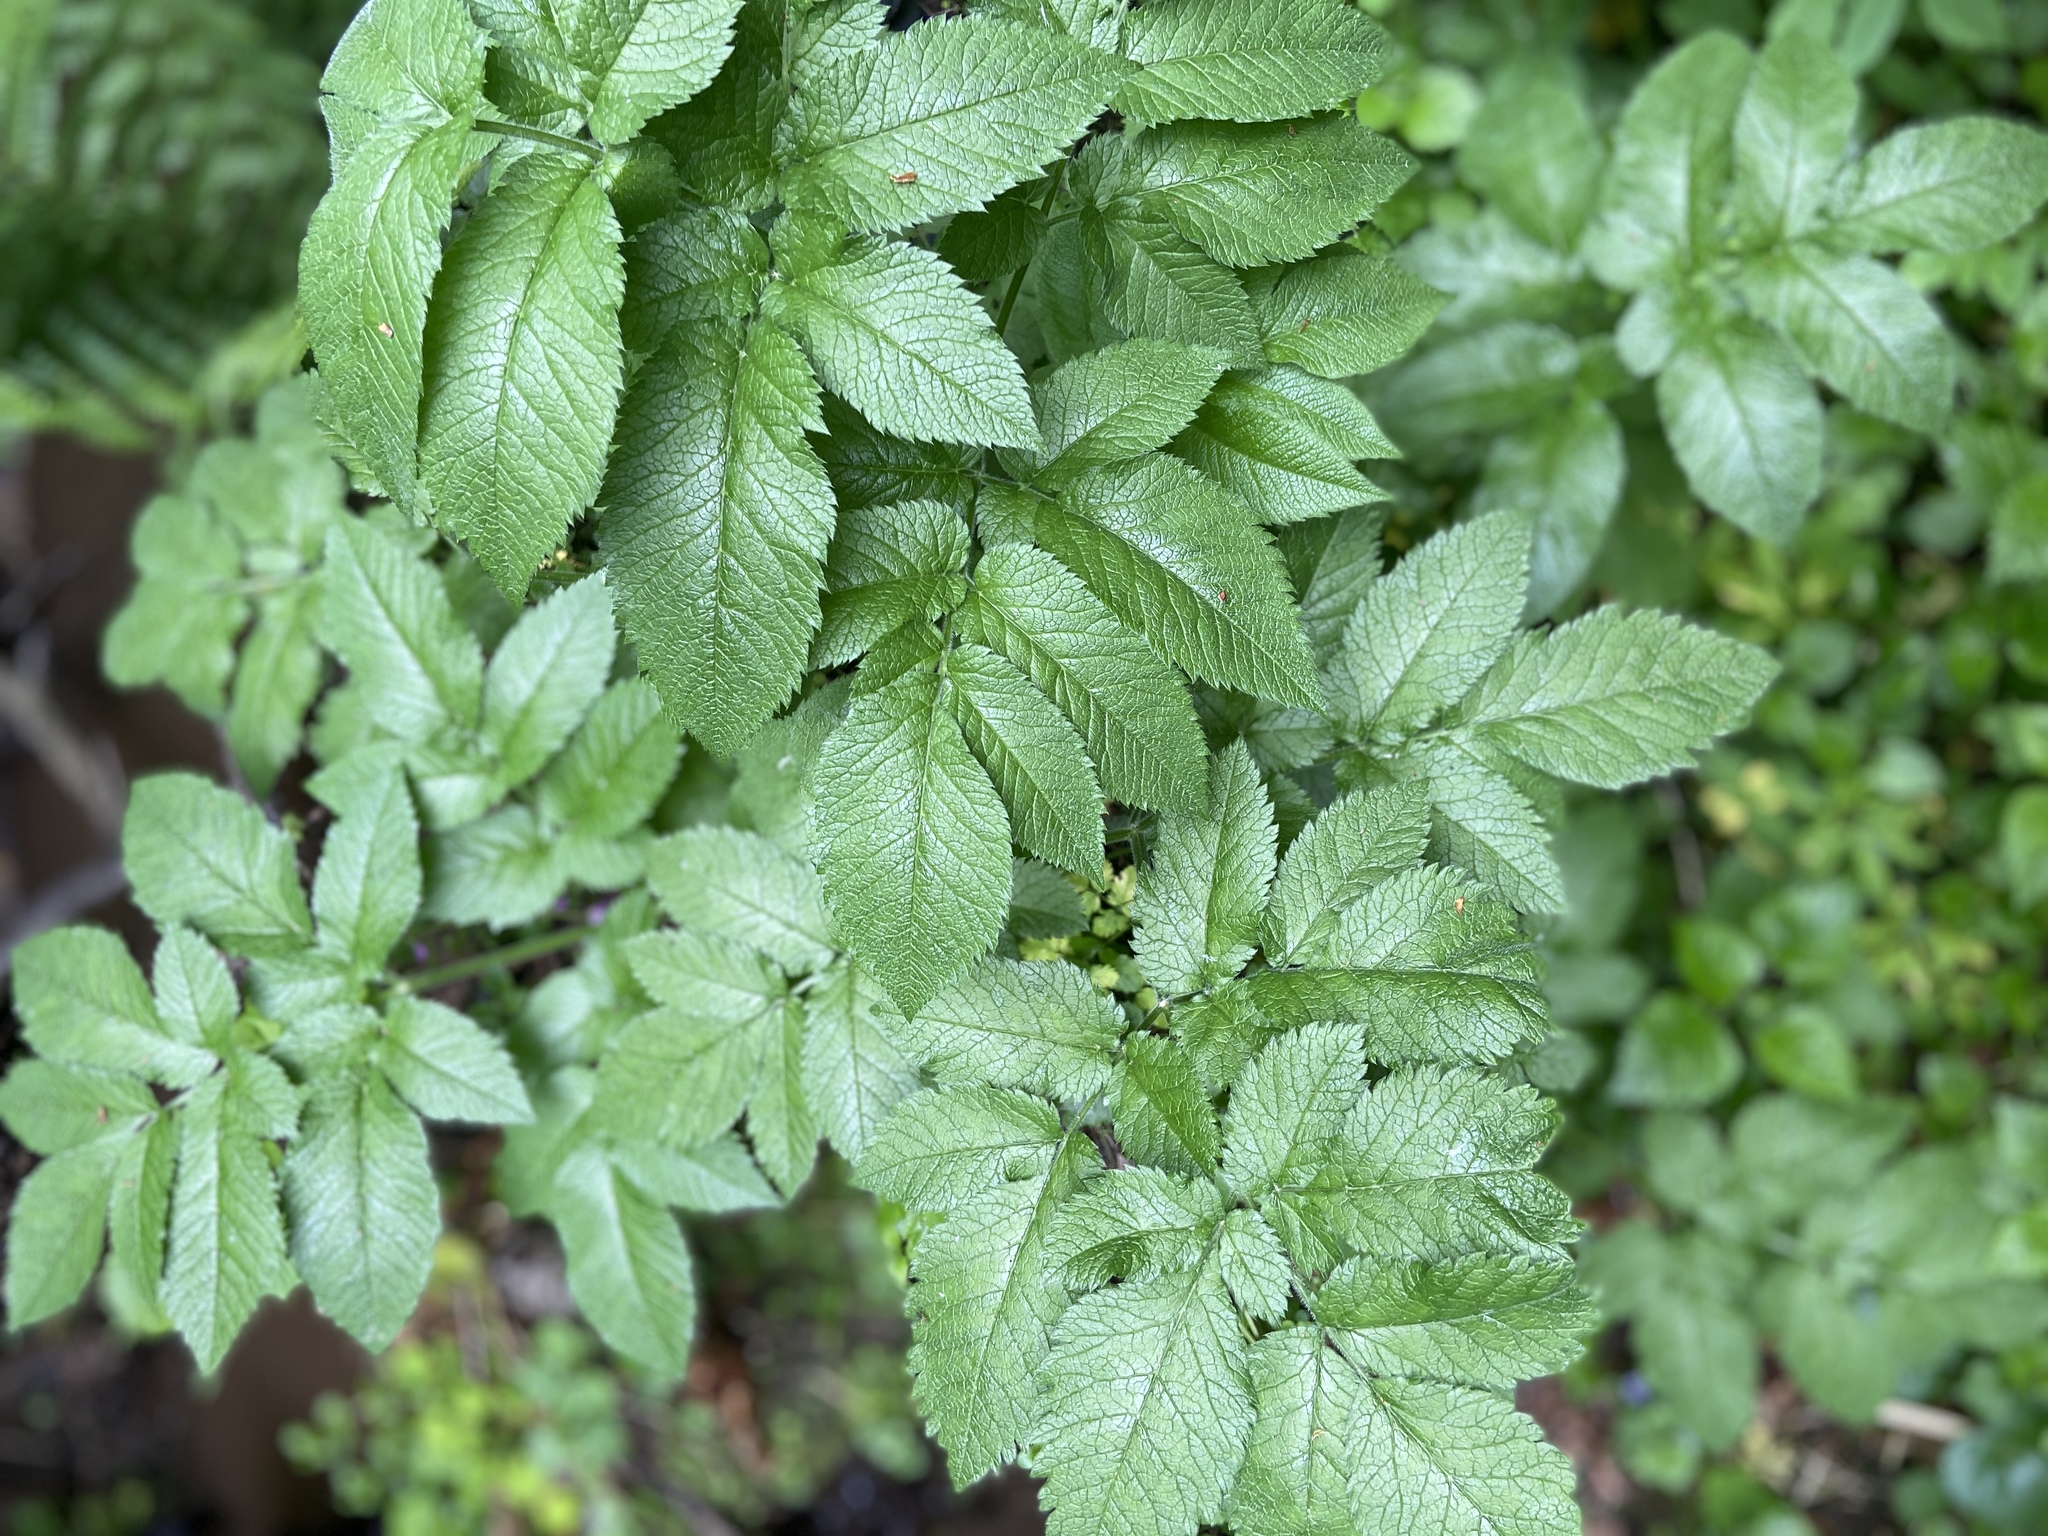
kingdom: Plantae
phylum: Tracheophyta
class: Magnoliopsida
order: Apiales
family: Apiaceae
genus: Chaerophyllum
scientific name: Chaerophyllum aromaticum
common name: Broadleaf chervil
